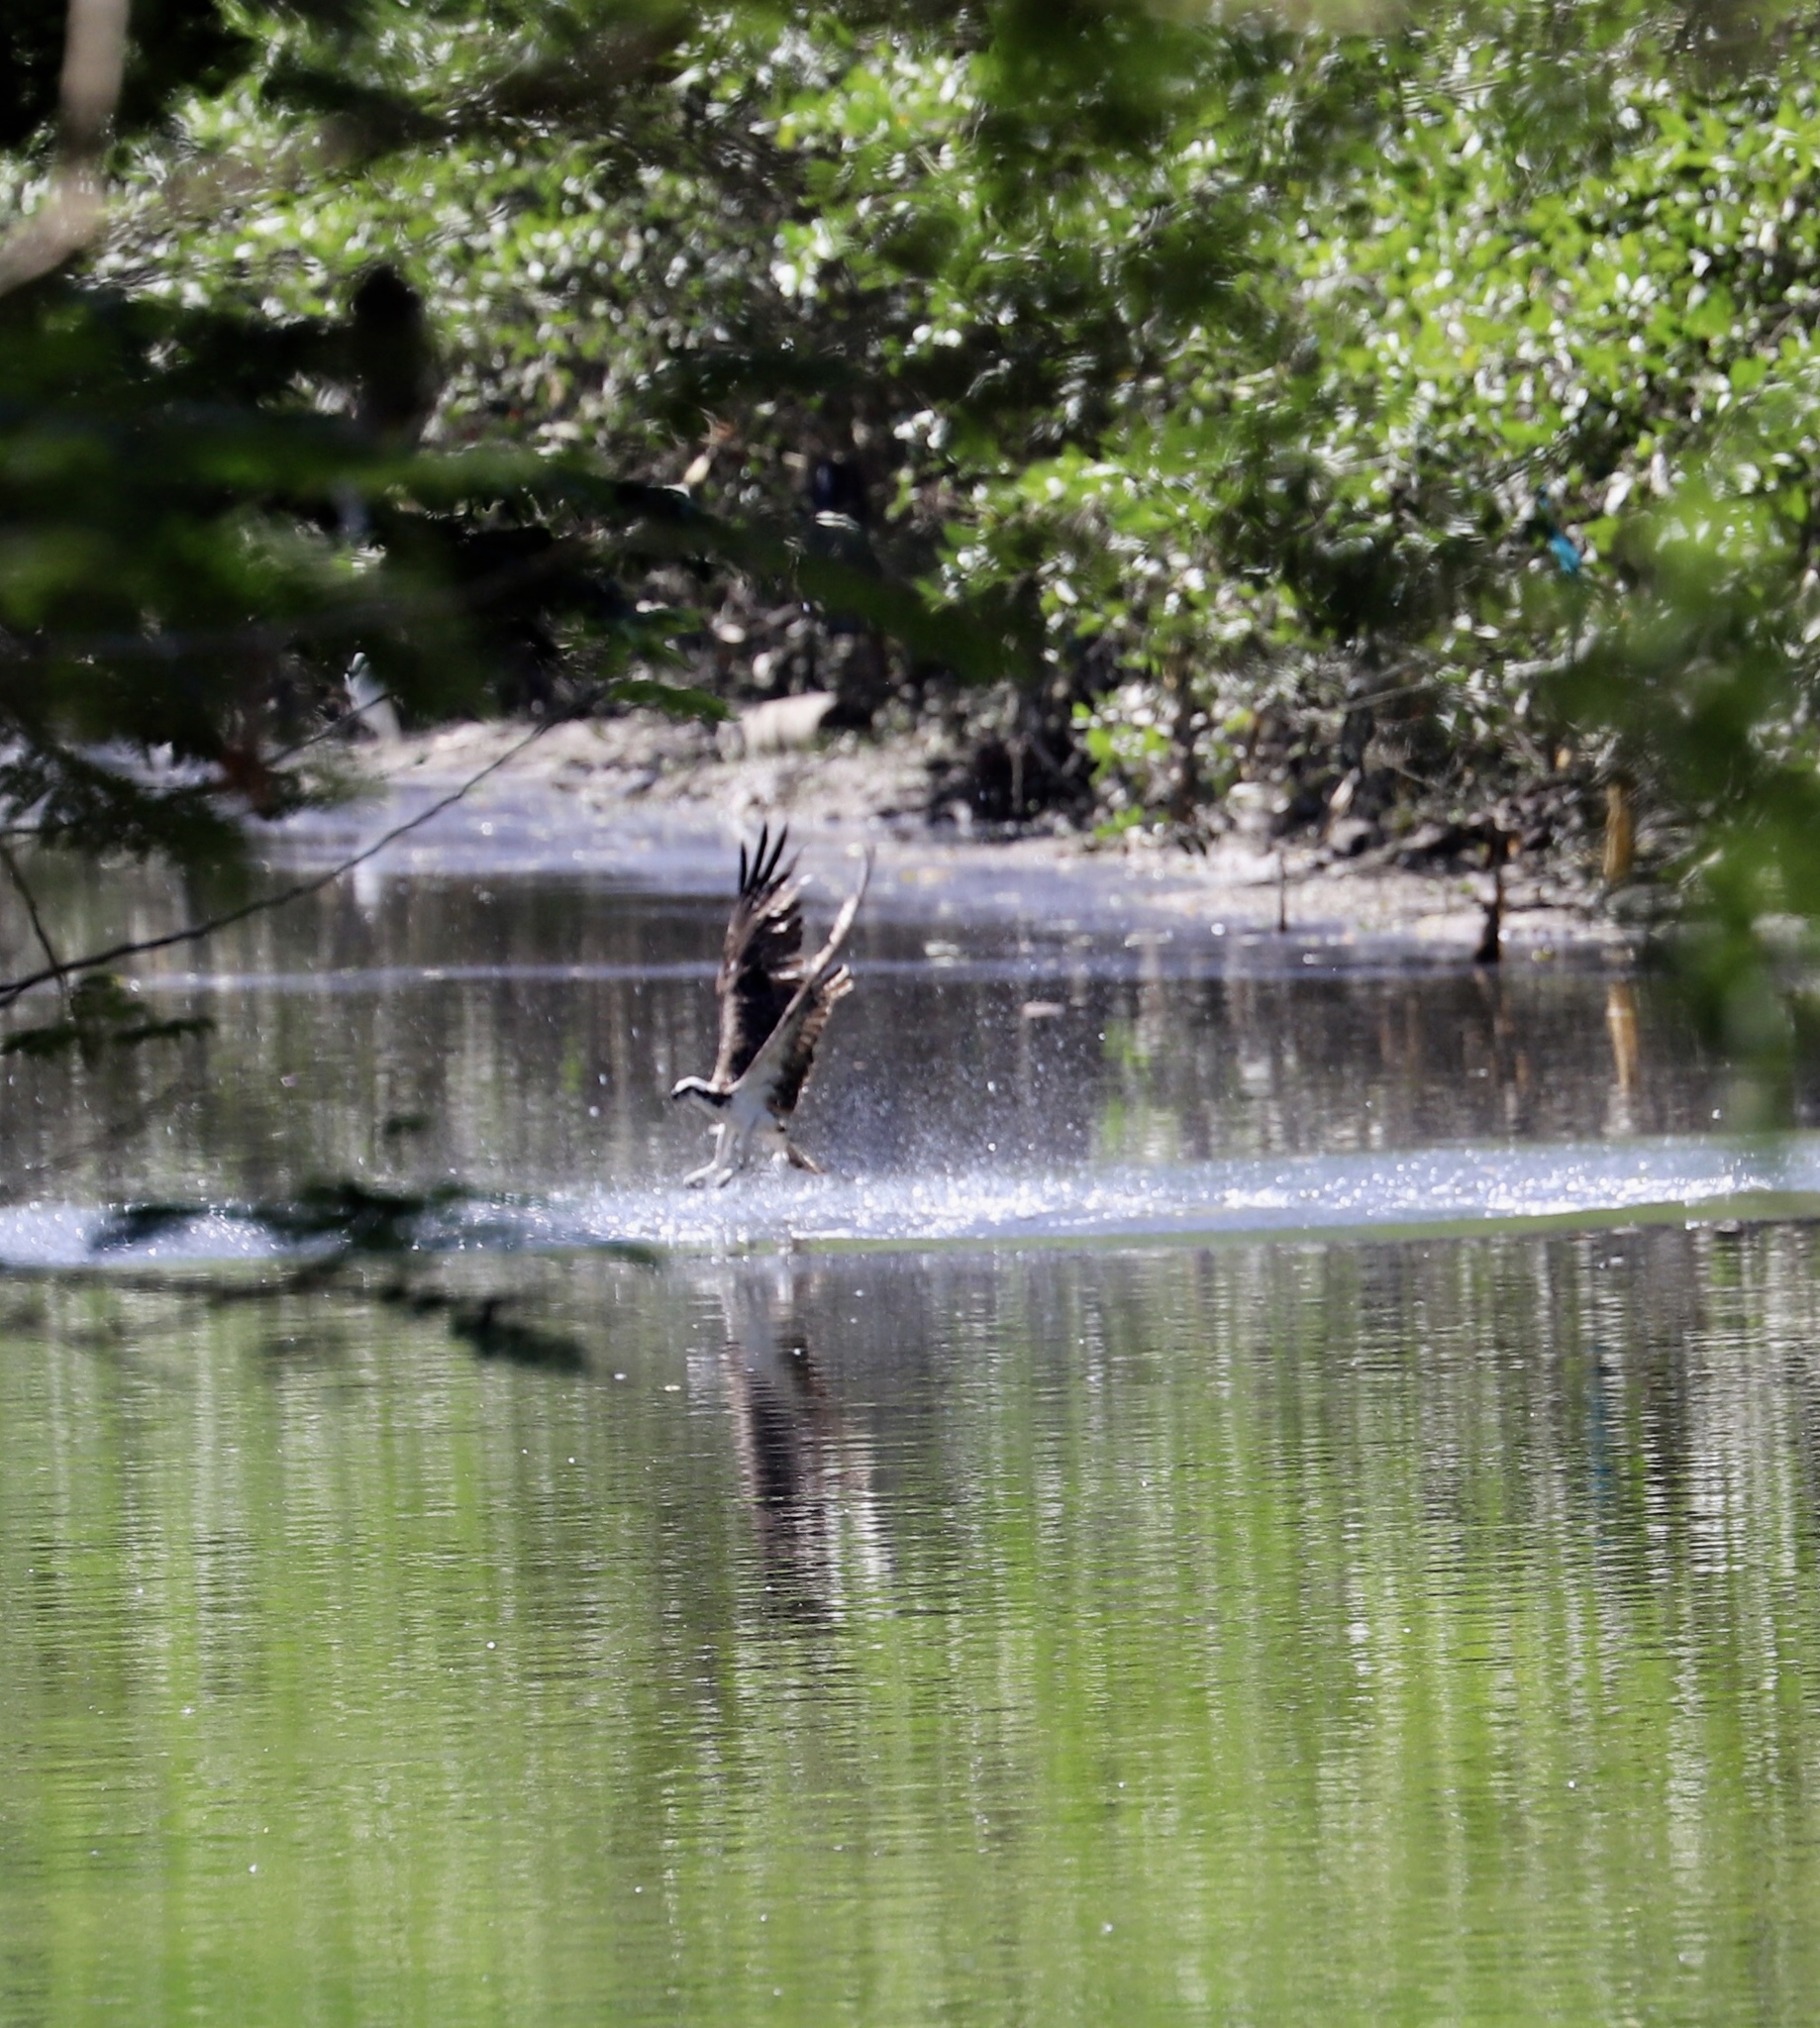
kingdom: Animalia
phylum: Chordata
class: Aves
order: Accipitriformes
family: Pandionidae
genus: Pandion
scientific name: Pandion haliaetus
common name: Osprey
